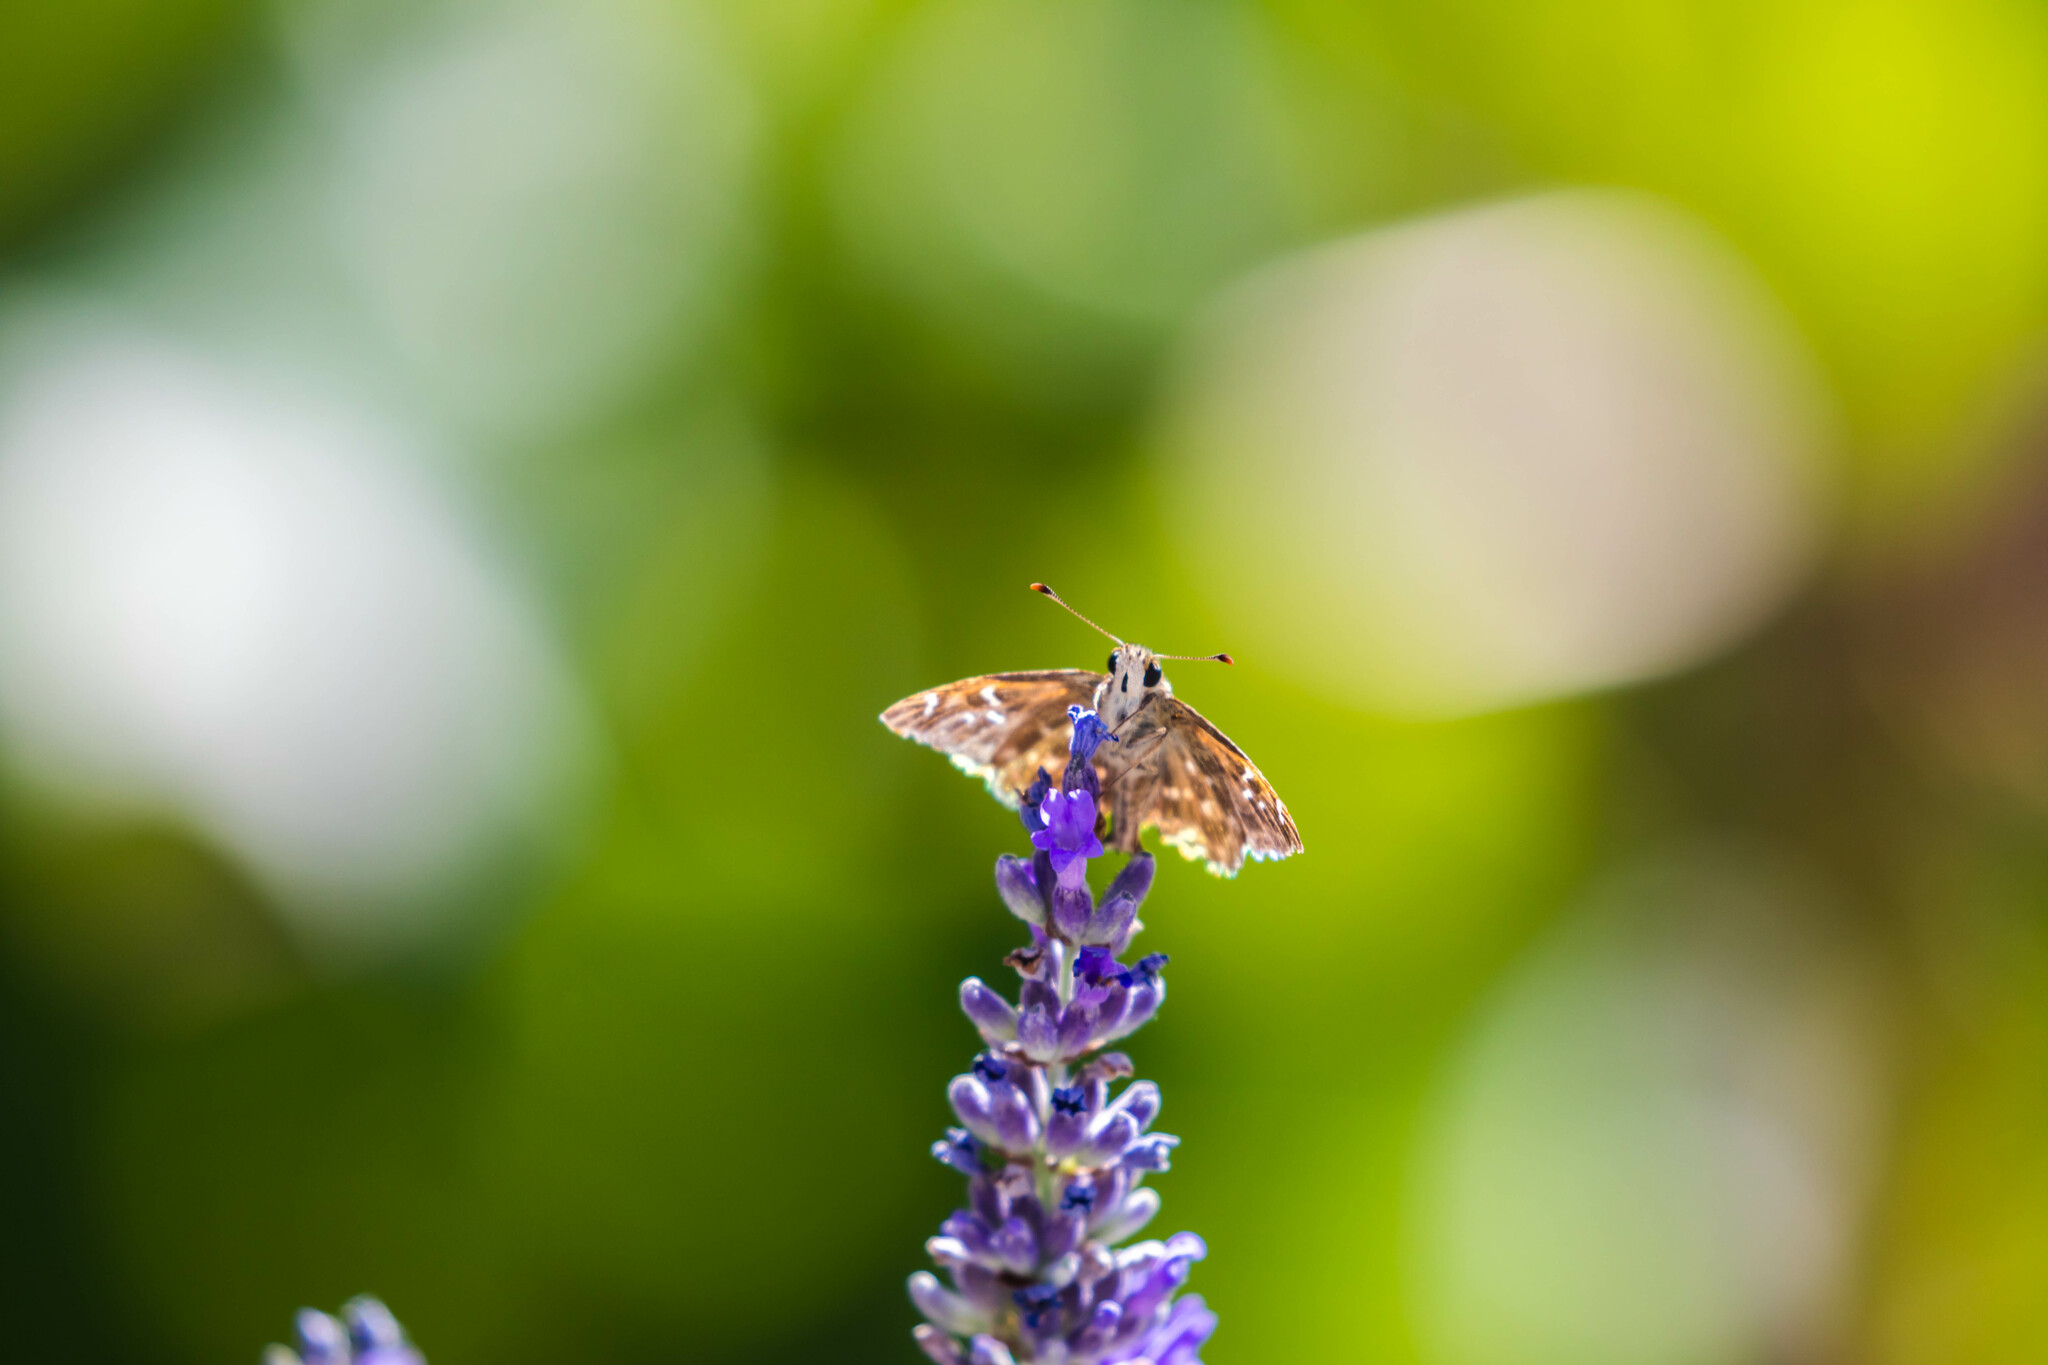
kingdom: Animalia
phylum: Arthropoda
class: Insecta
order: Lepidoptera
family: Hesperiidae
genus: Carcharodus
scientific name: Carcharodus alceae
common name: Mallow skipper
